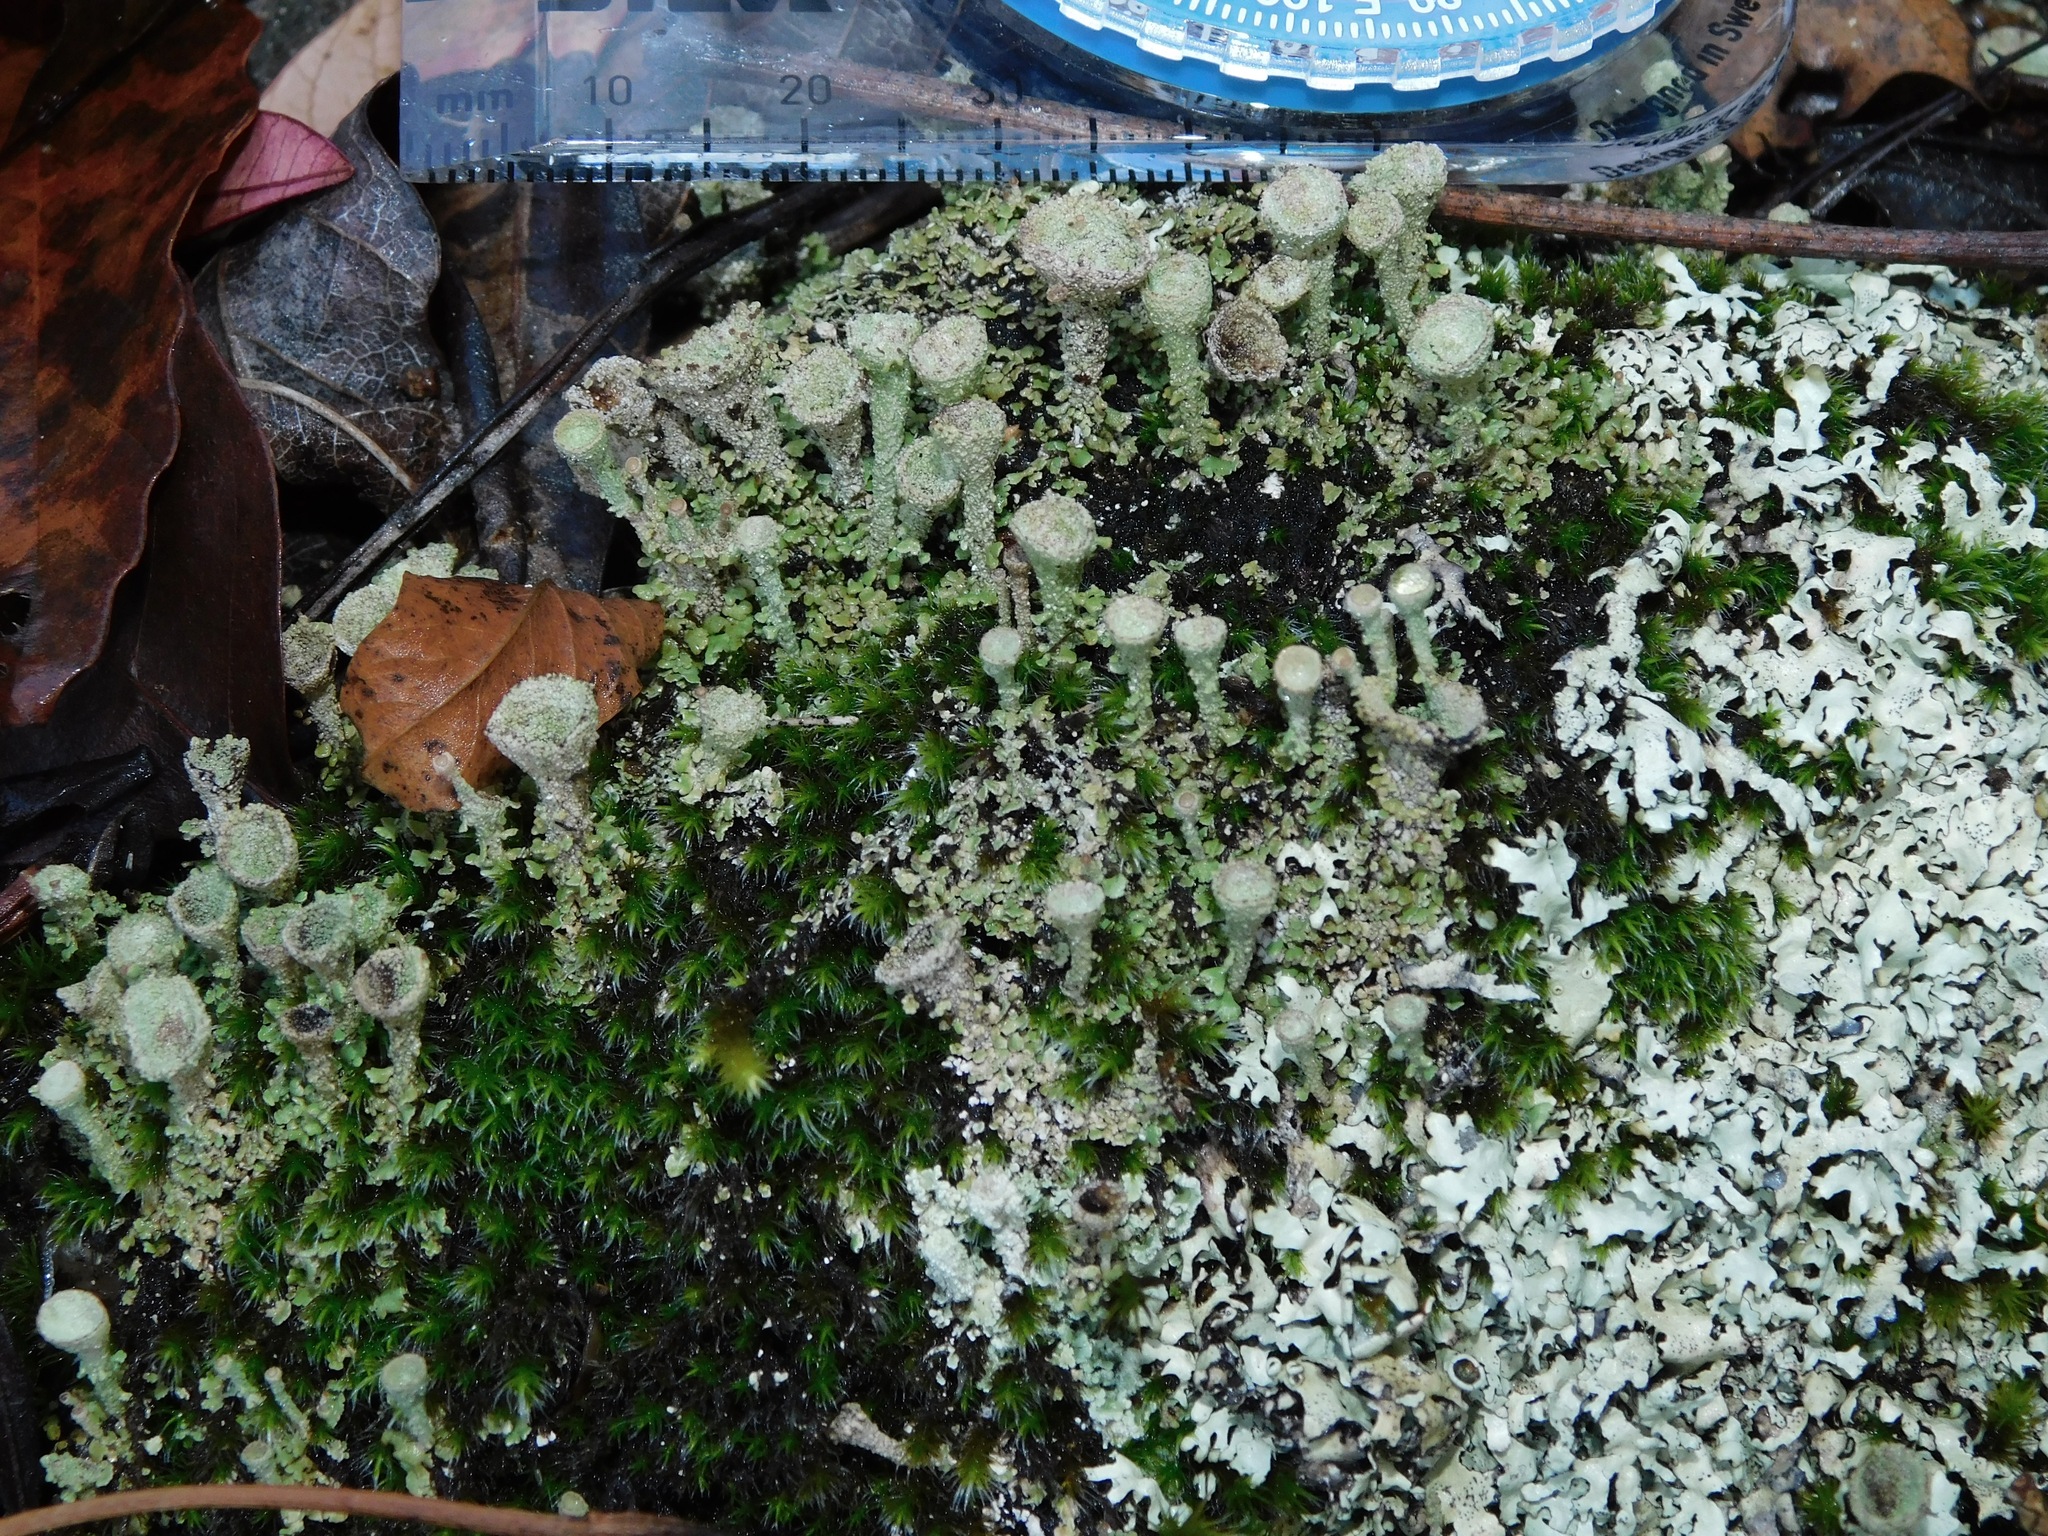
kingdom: Fungi
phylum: Ascomycota
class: Lecanoromycetes
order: Lecanorales
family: Cladoniaceae
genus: Cladonia
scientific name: Cladonia grayi
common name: Gray's cup lichen
